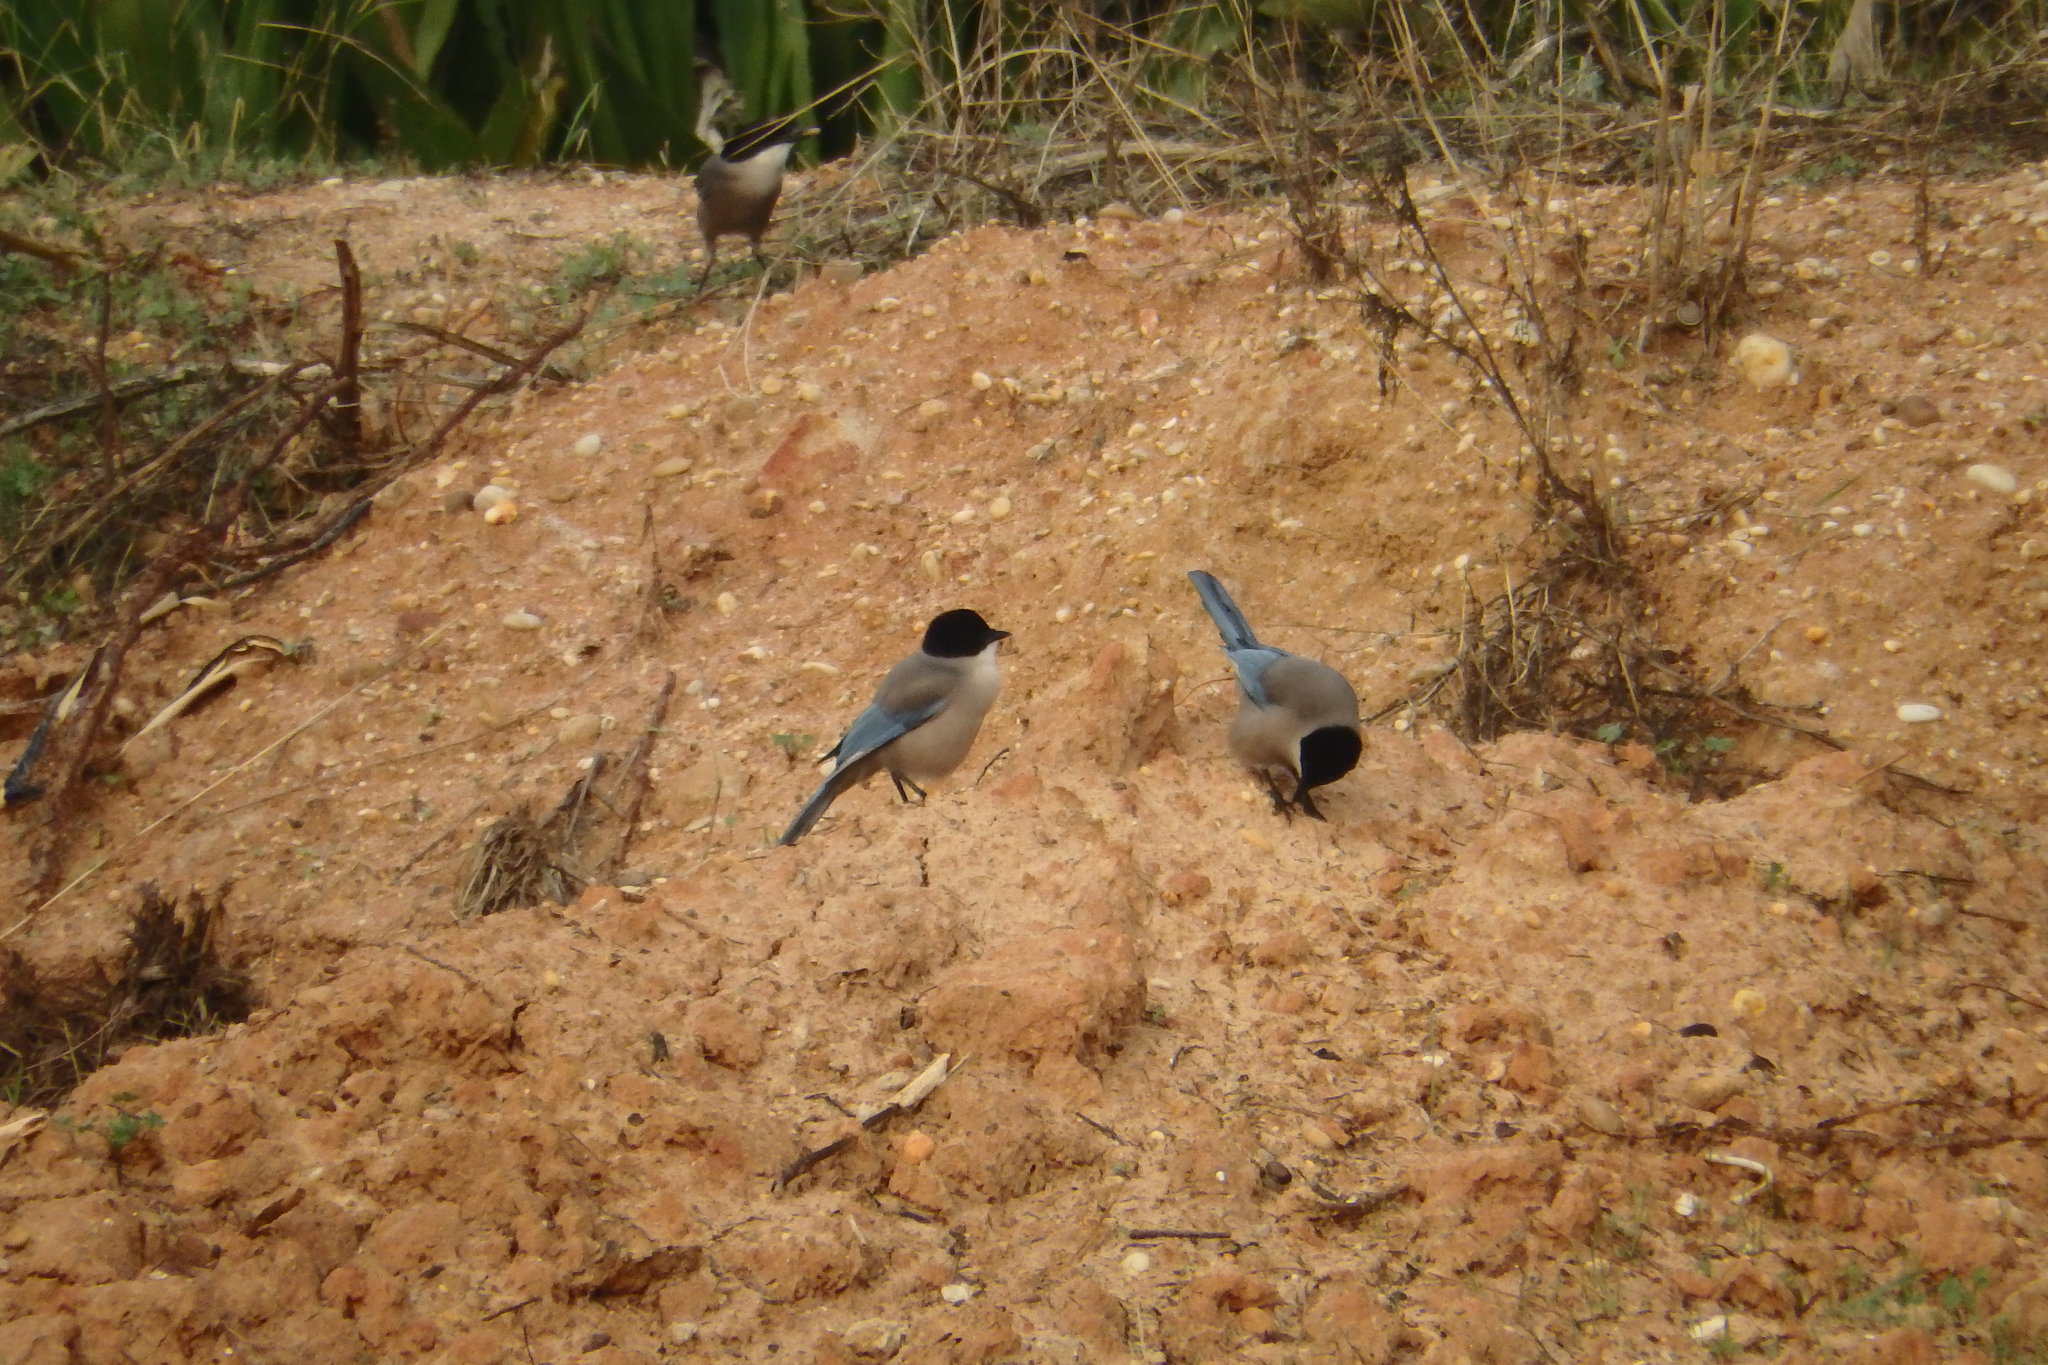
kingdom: Animalia
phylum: Chordata
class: Aves
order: Passeriformes
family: Corvidae
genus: Cyanopica
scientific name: Cyanopica cooki
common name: Iberian magpie
